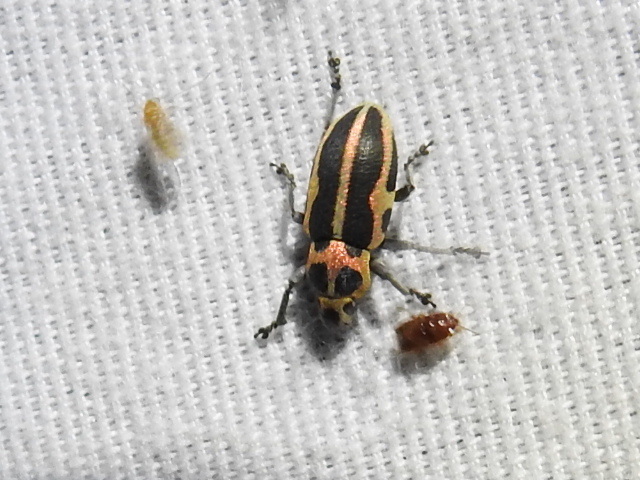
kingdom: Animalia
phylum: Arthropoda
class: Insecta
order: Coleoptera
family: Curculionidae
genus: Eudiagogus
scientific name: Eudiagogus pulcher
